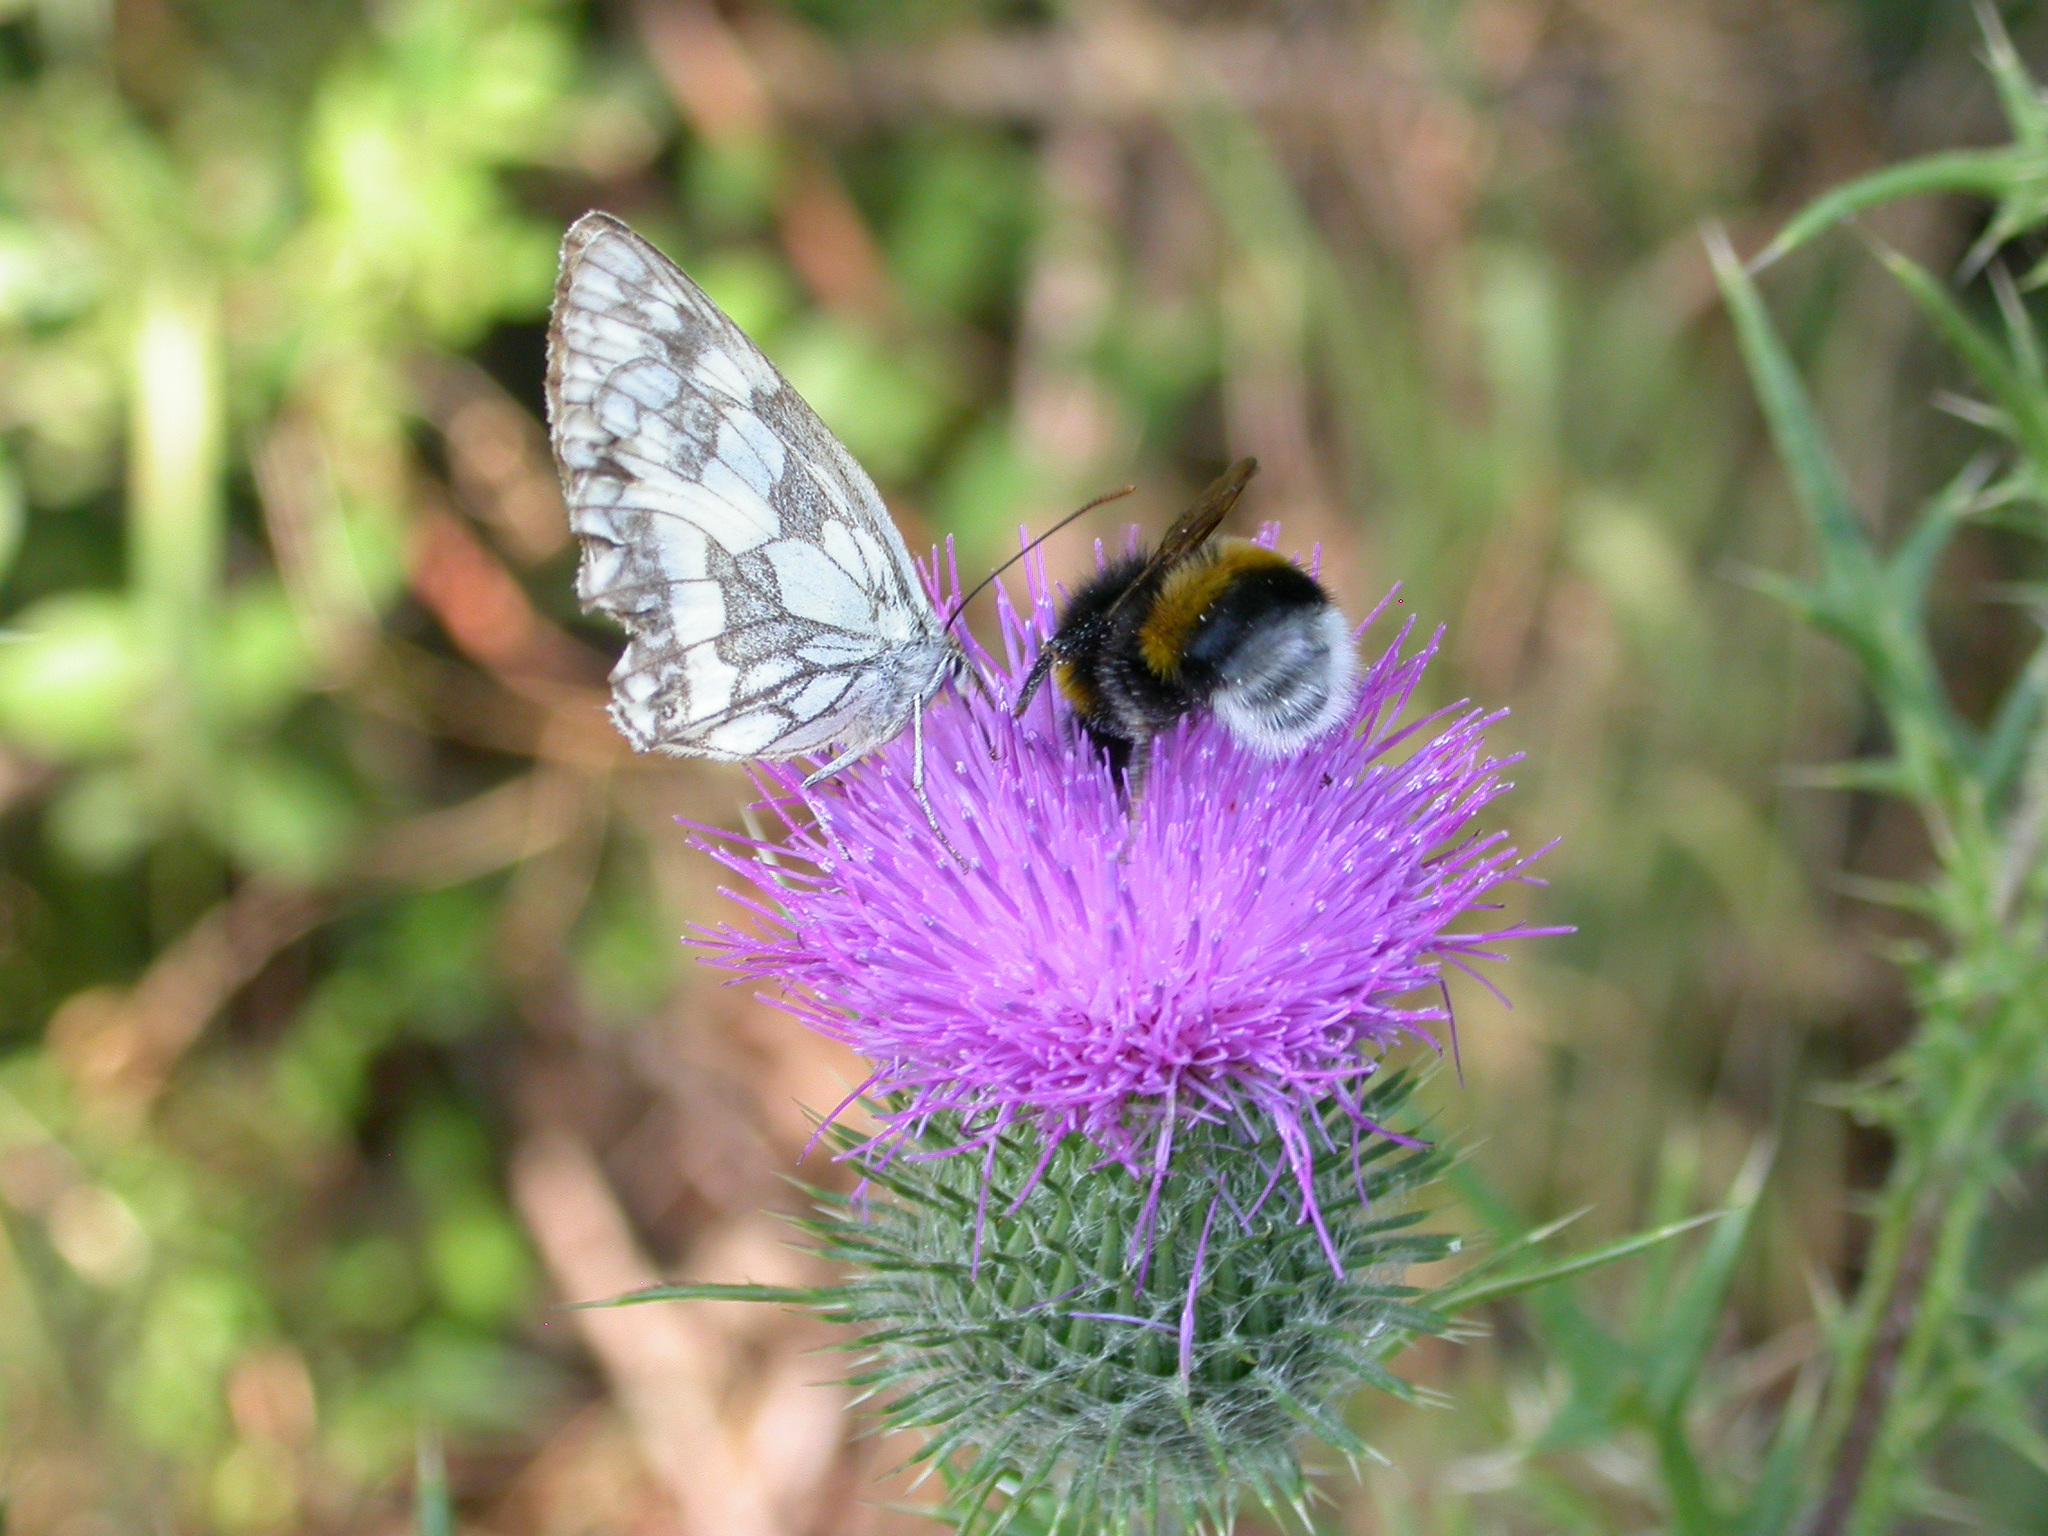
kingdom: Animalia
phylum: Arthropoda
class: Insecta
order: Lepidoptera
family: Nymphalidae
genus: Melanargia
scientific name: Melanargia galathea
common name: Marbled white
